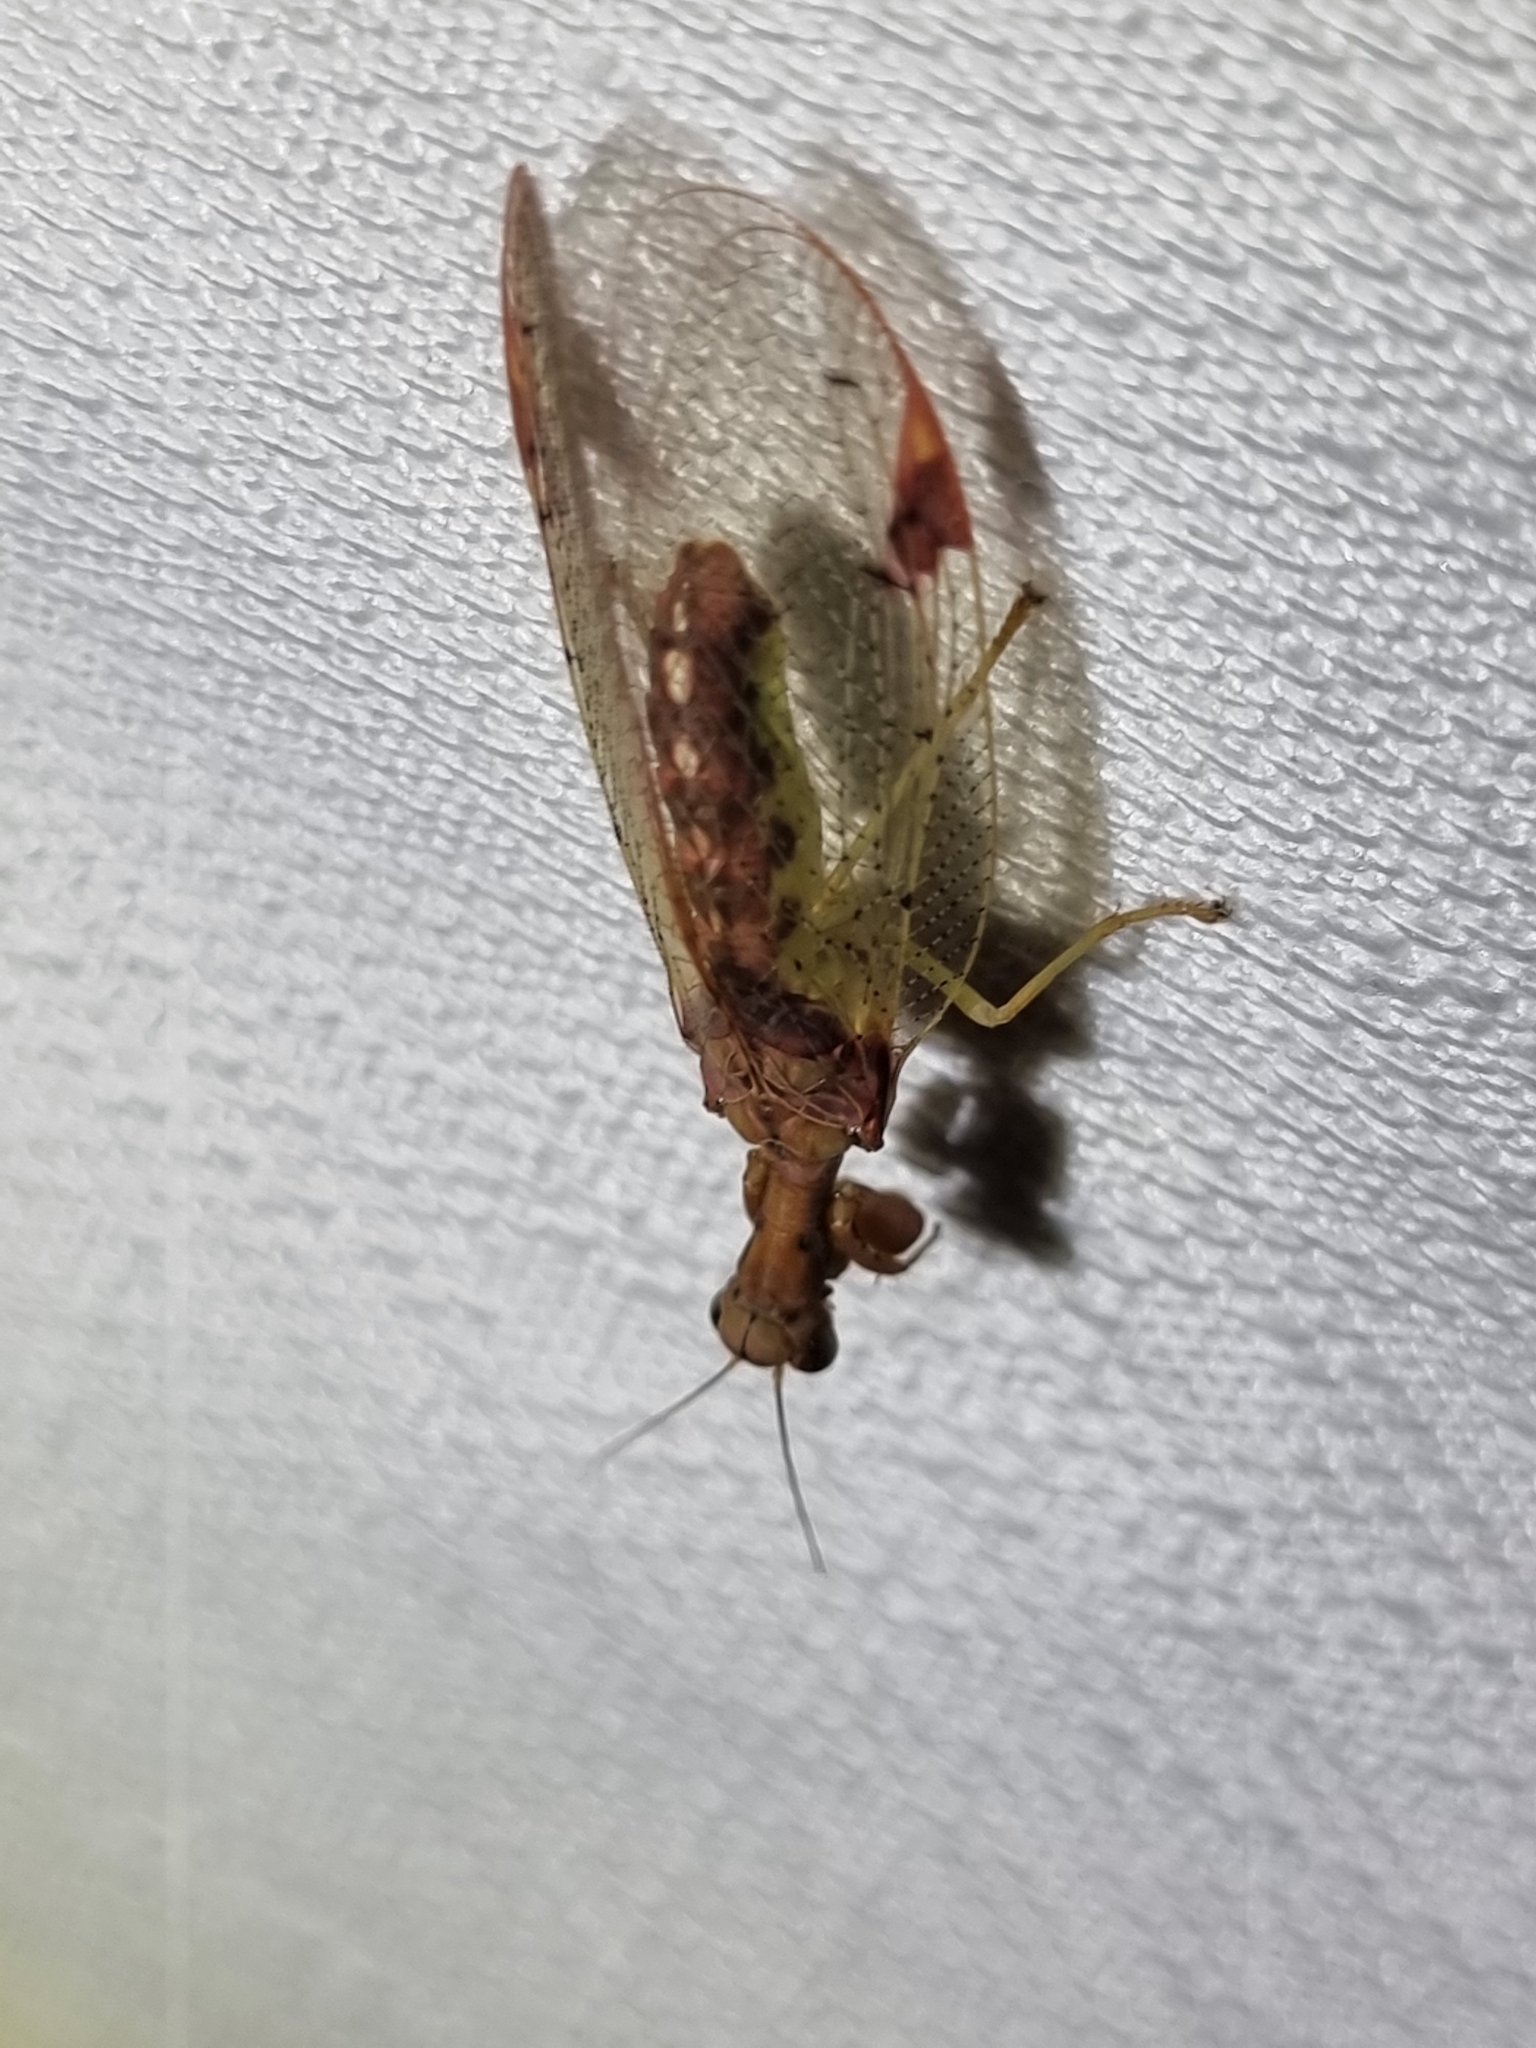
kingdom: Animalia
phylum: Arthropoda
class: Insecta
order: Neuroptera
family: Mantispidae
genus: Ditaxis
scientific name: Ditaxis biseriata
